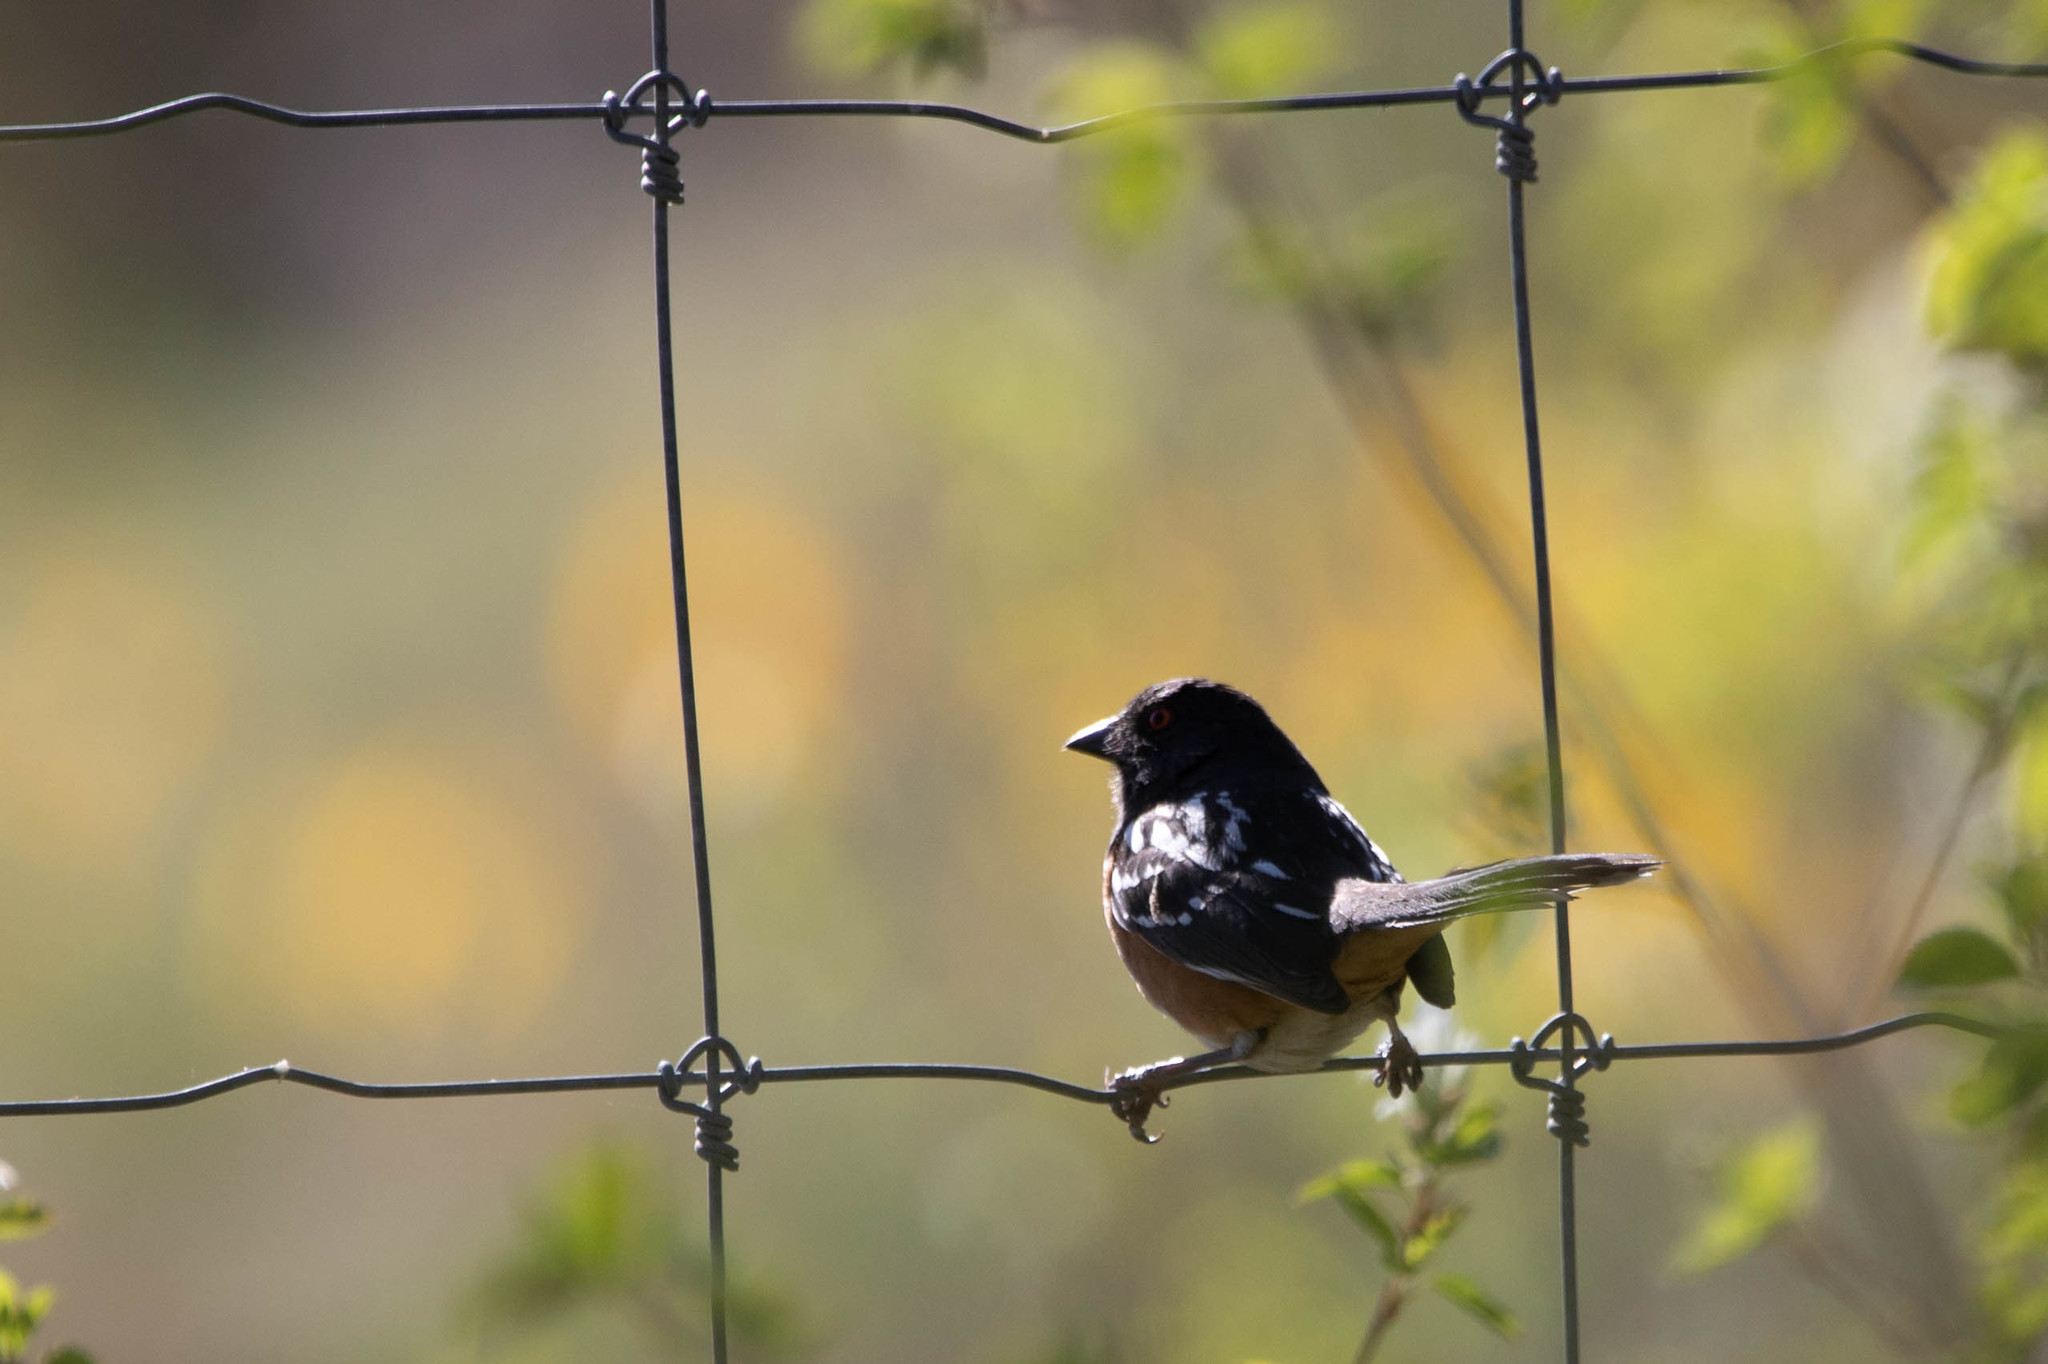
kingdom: Animalia
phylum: Chordata
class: Aves
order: Passeriformes
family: Passerellidae
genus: Pipilo
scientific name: Pipilo maculatus
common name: Spotted towhee
